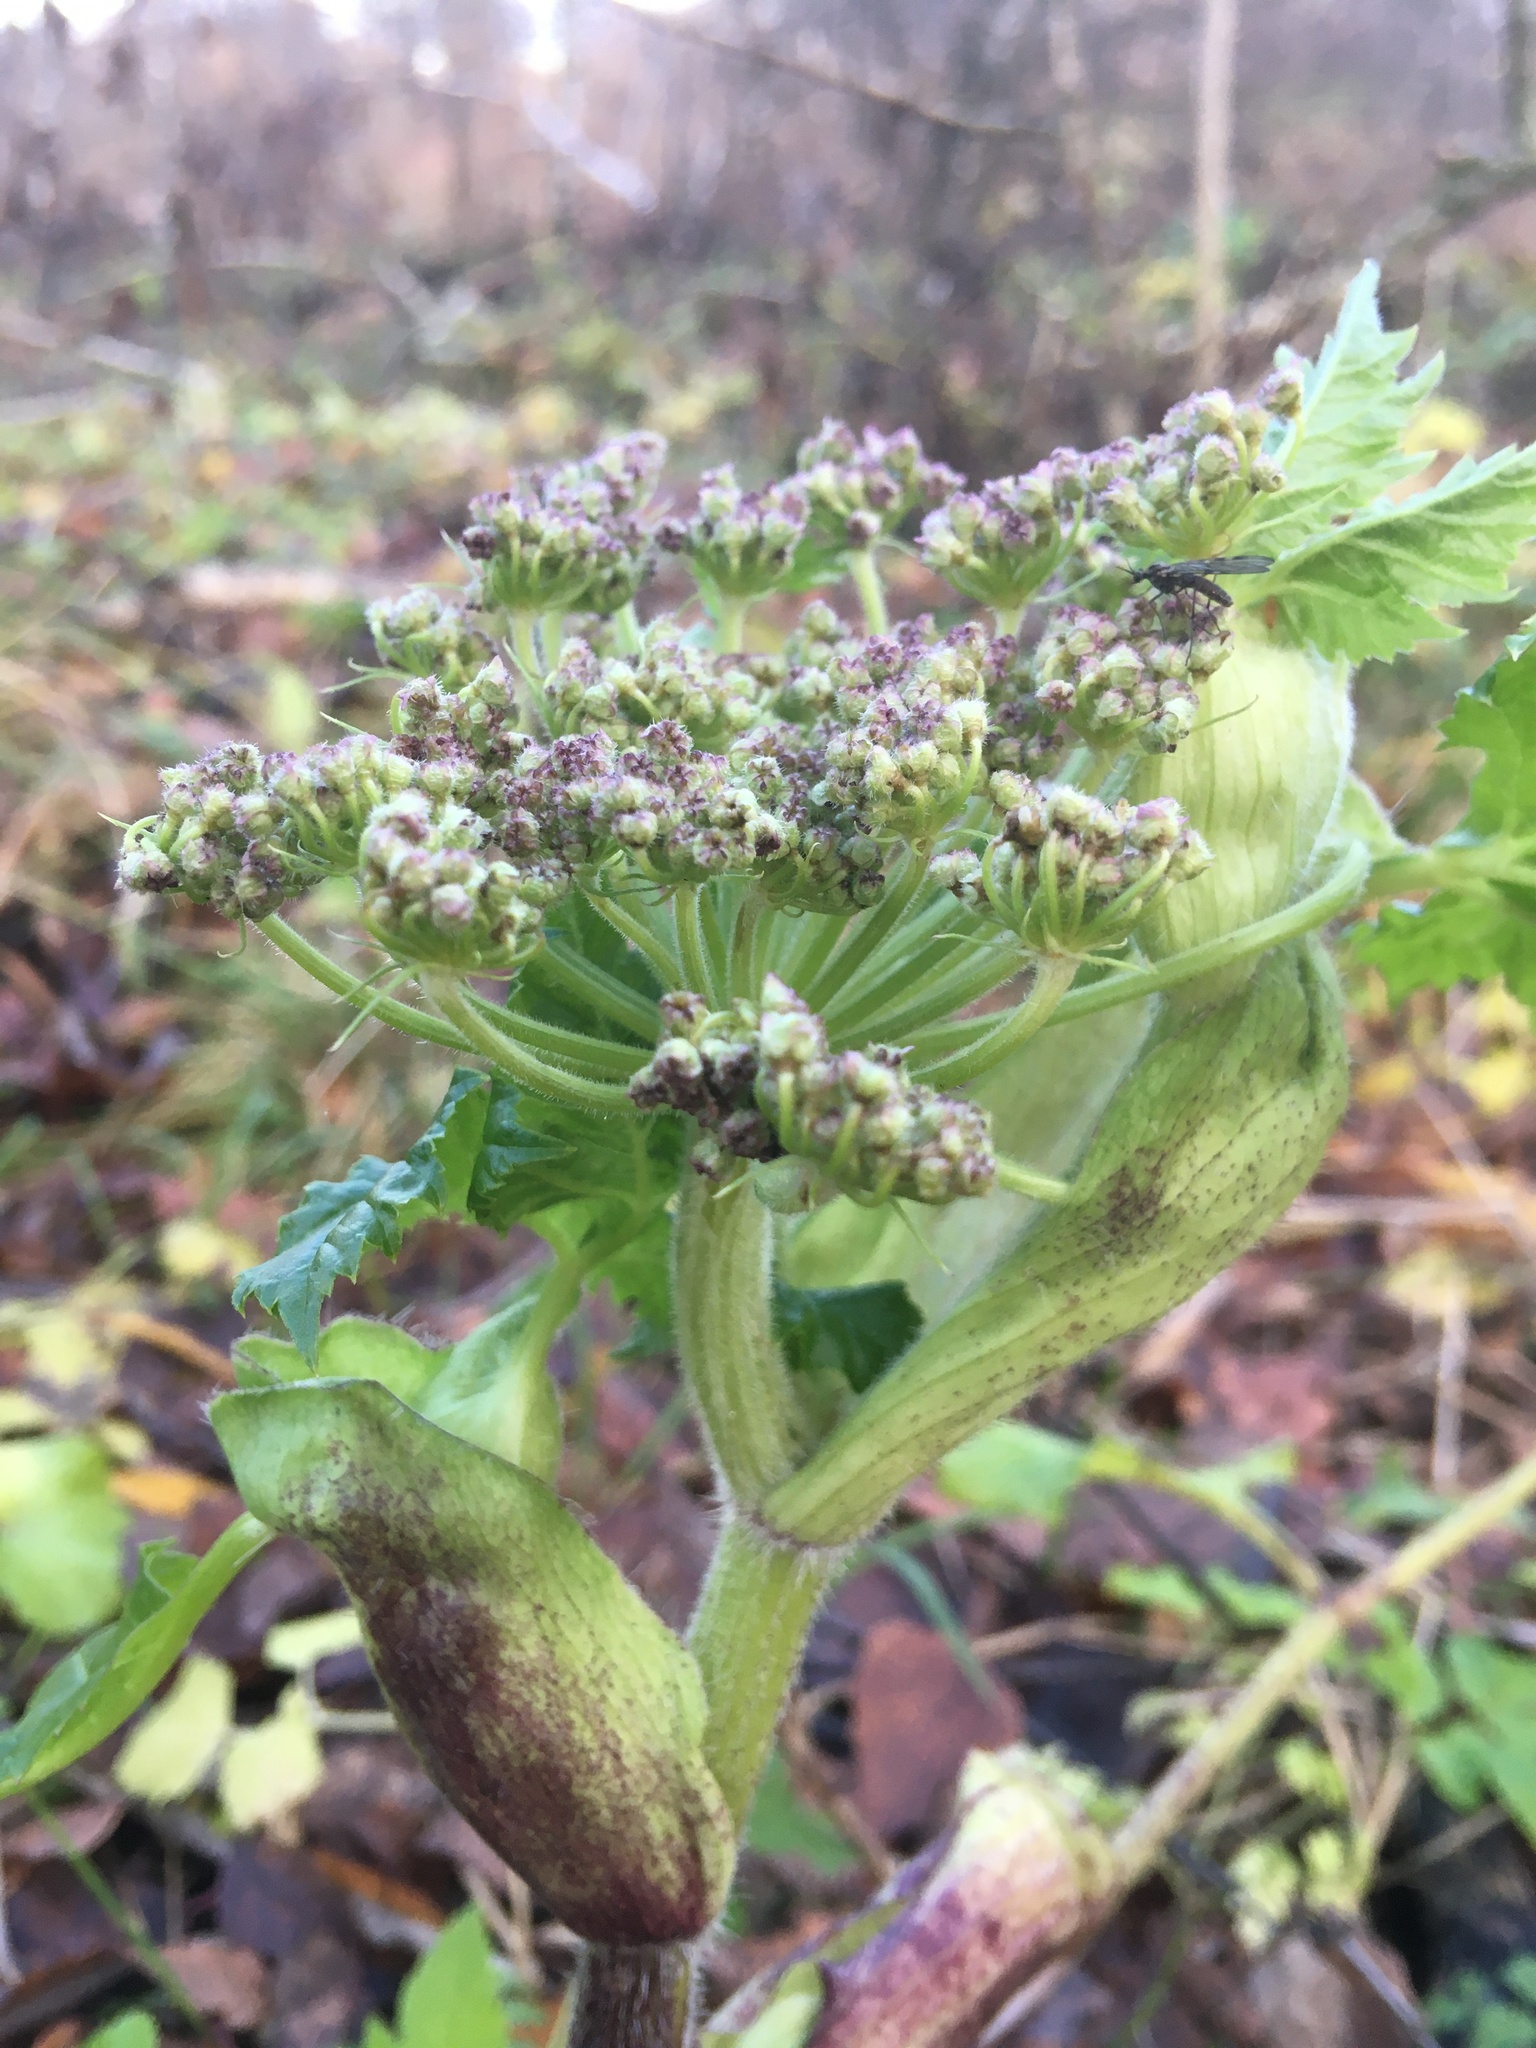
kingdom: Plantae
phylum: Tracheophyta
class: Magnoliopsida
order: Apiales
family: Apiaceae
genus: Heracleum
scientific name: Heracleum sosnowskyi
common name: Sosnowsky's hogweed
